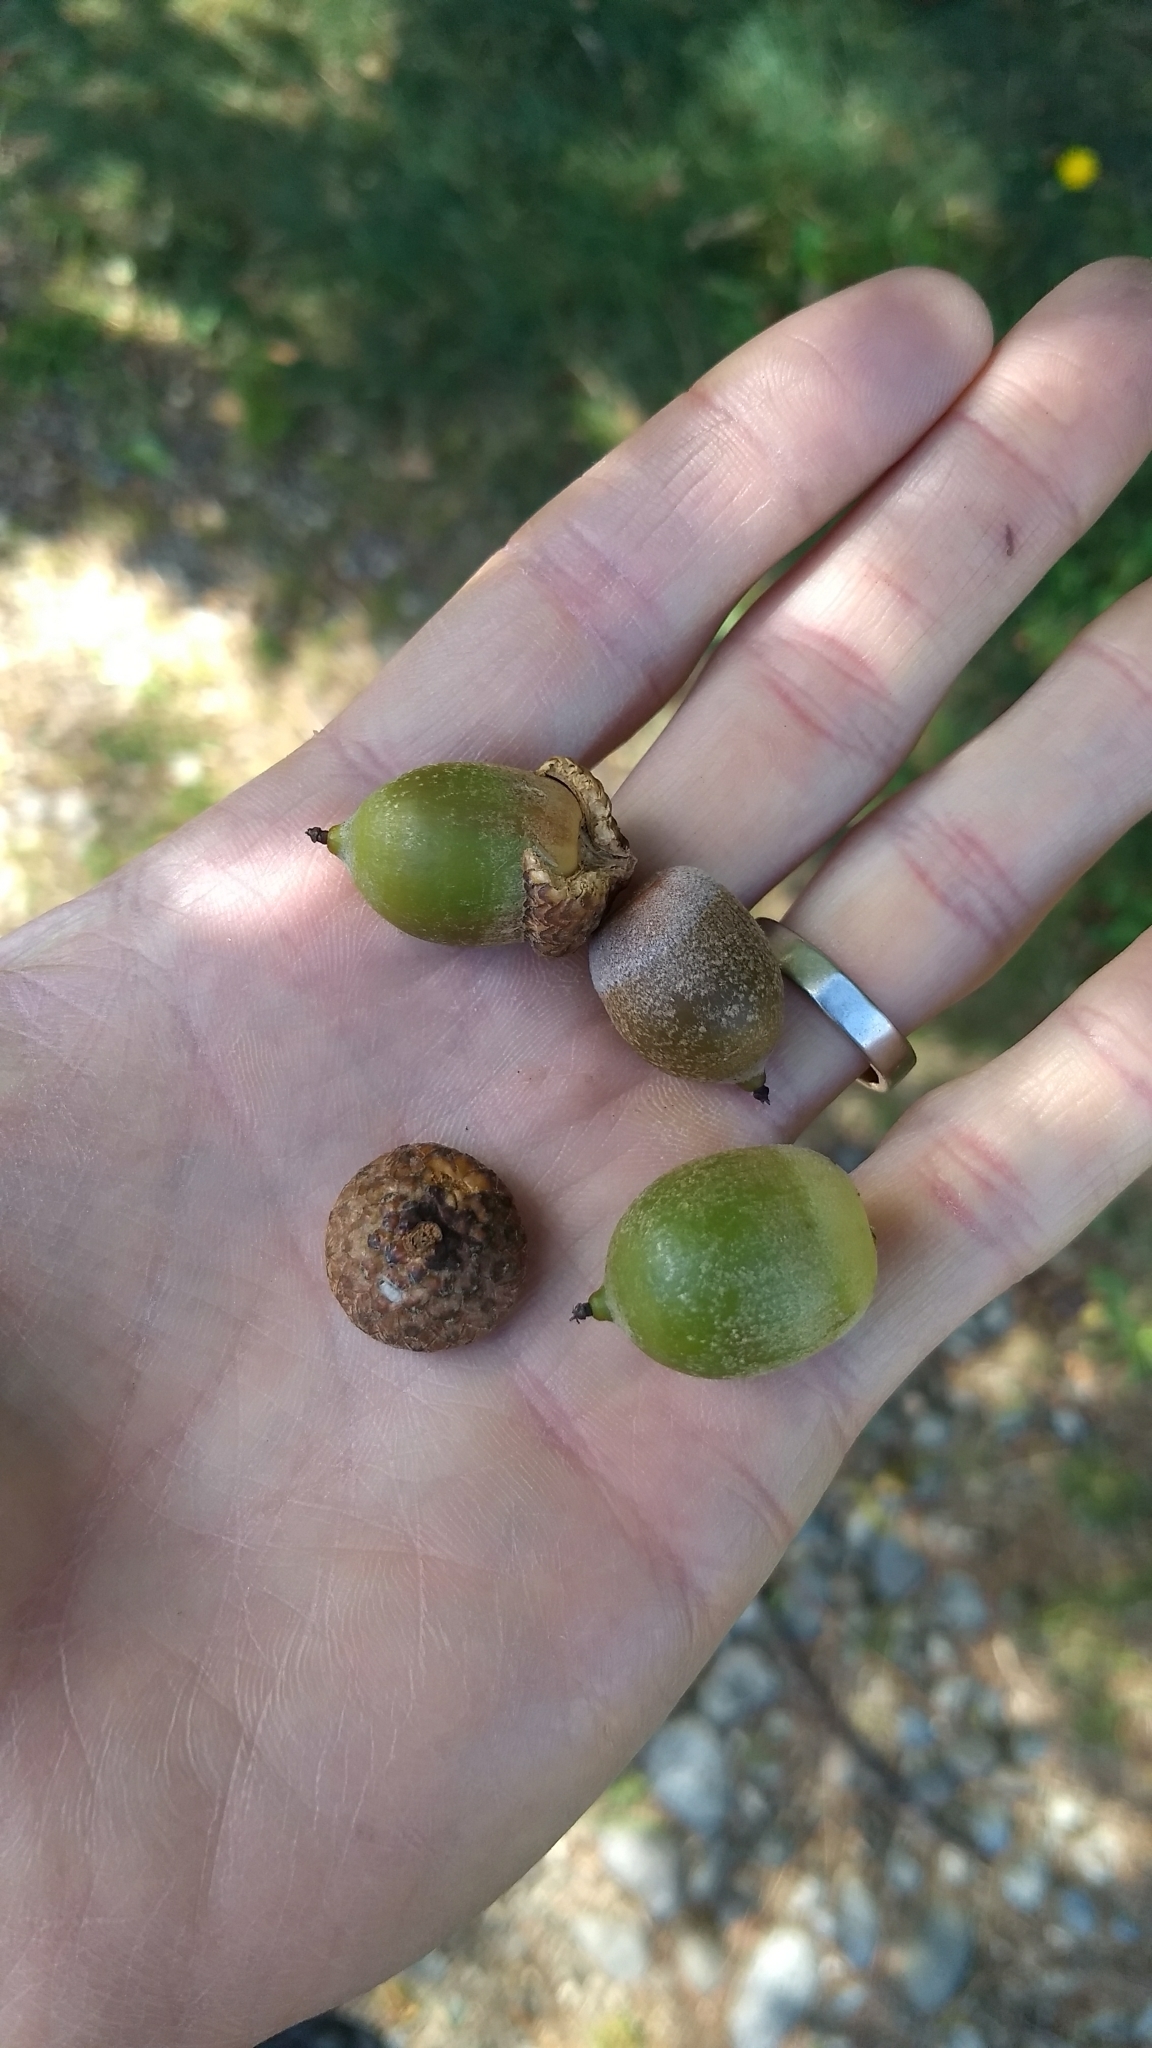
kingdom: Plantae
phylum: Tracheophyta
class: Magnoliopsida
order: Fagales
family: Fagaceae
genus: Quercus
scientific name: Quercus rubra
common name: Red oak
